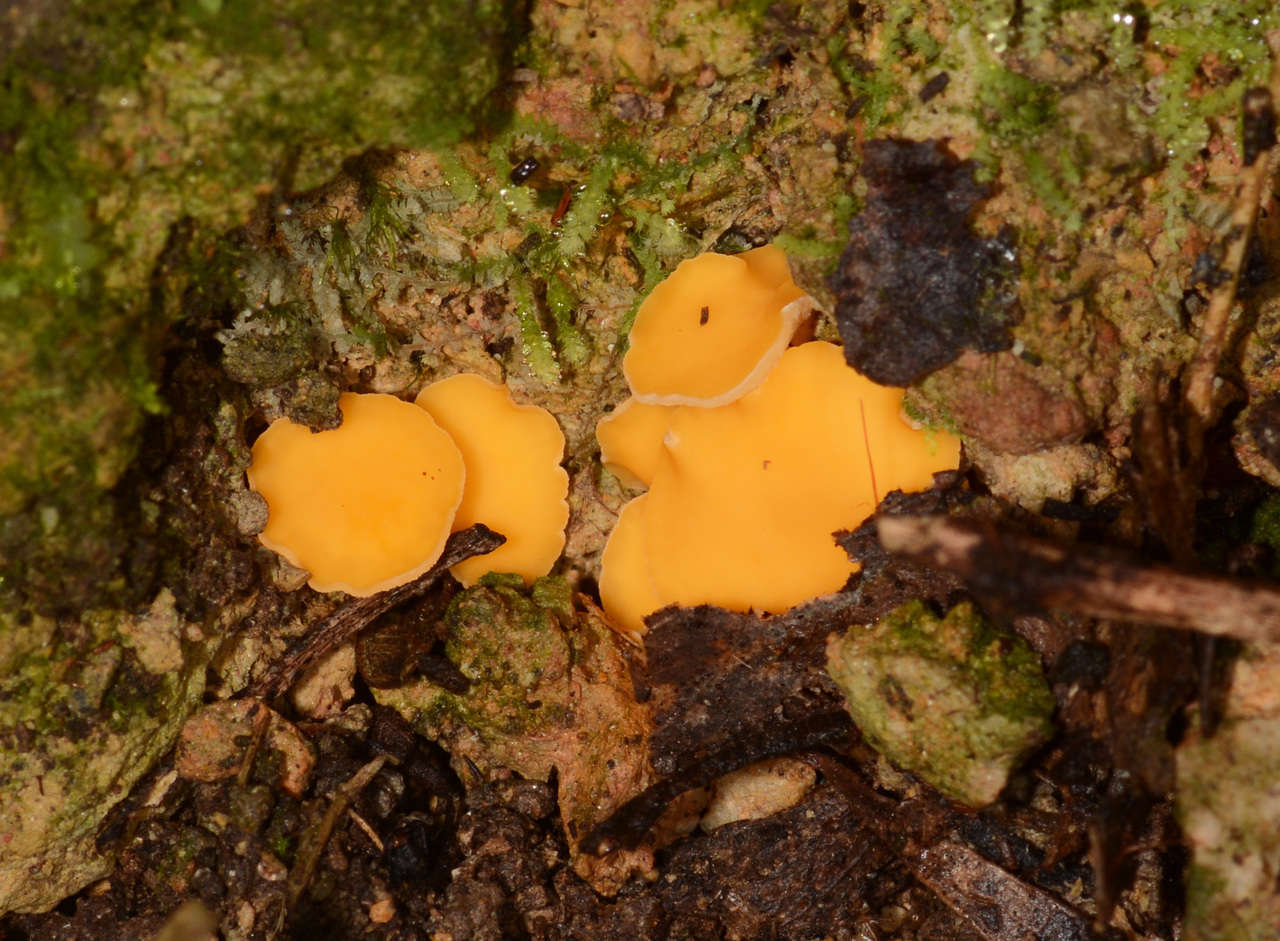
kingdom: Fungi
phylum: Ascomycota
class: Leotiomycetes
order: Helotiales
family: Helotiaceae
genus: Phaeohelotium
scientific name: Phaeohelotium baileyanum
